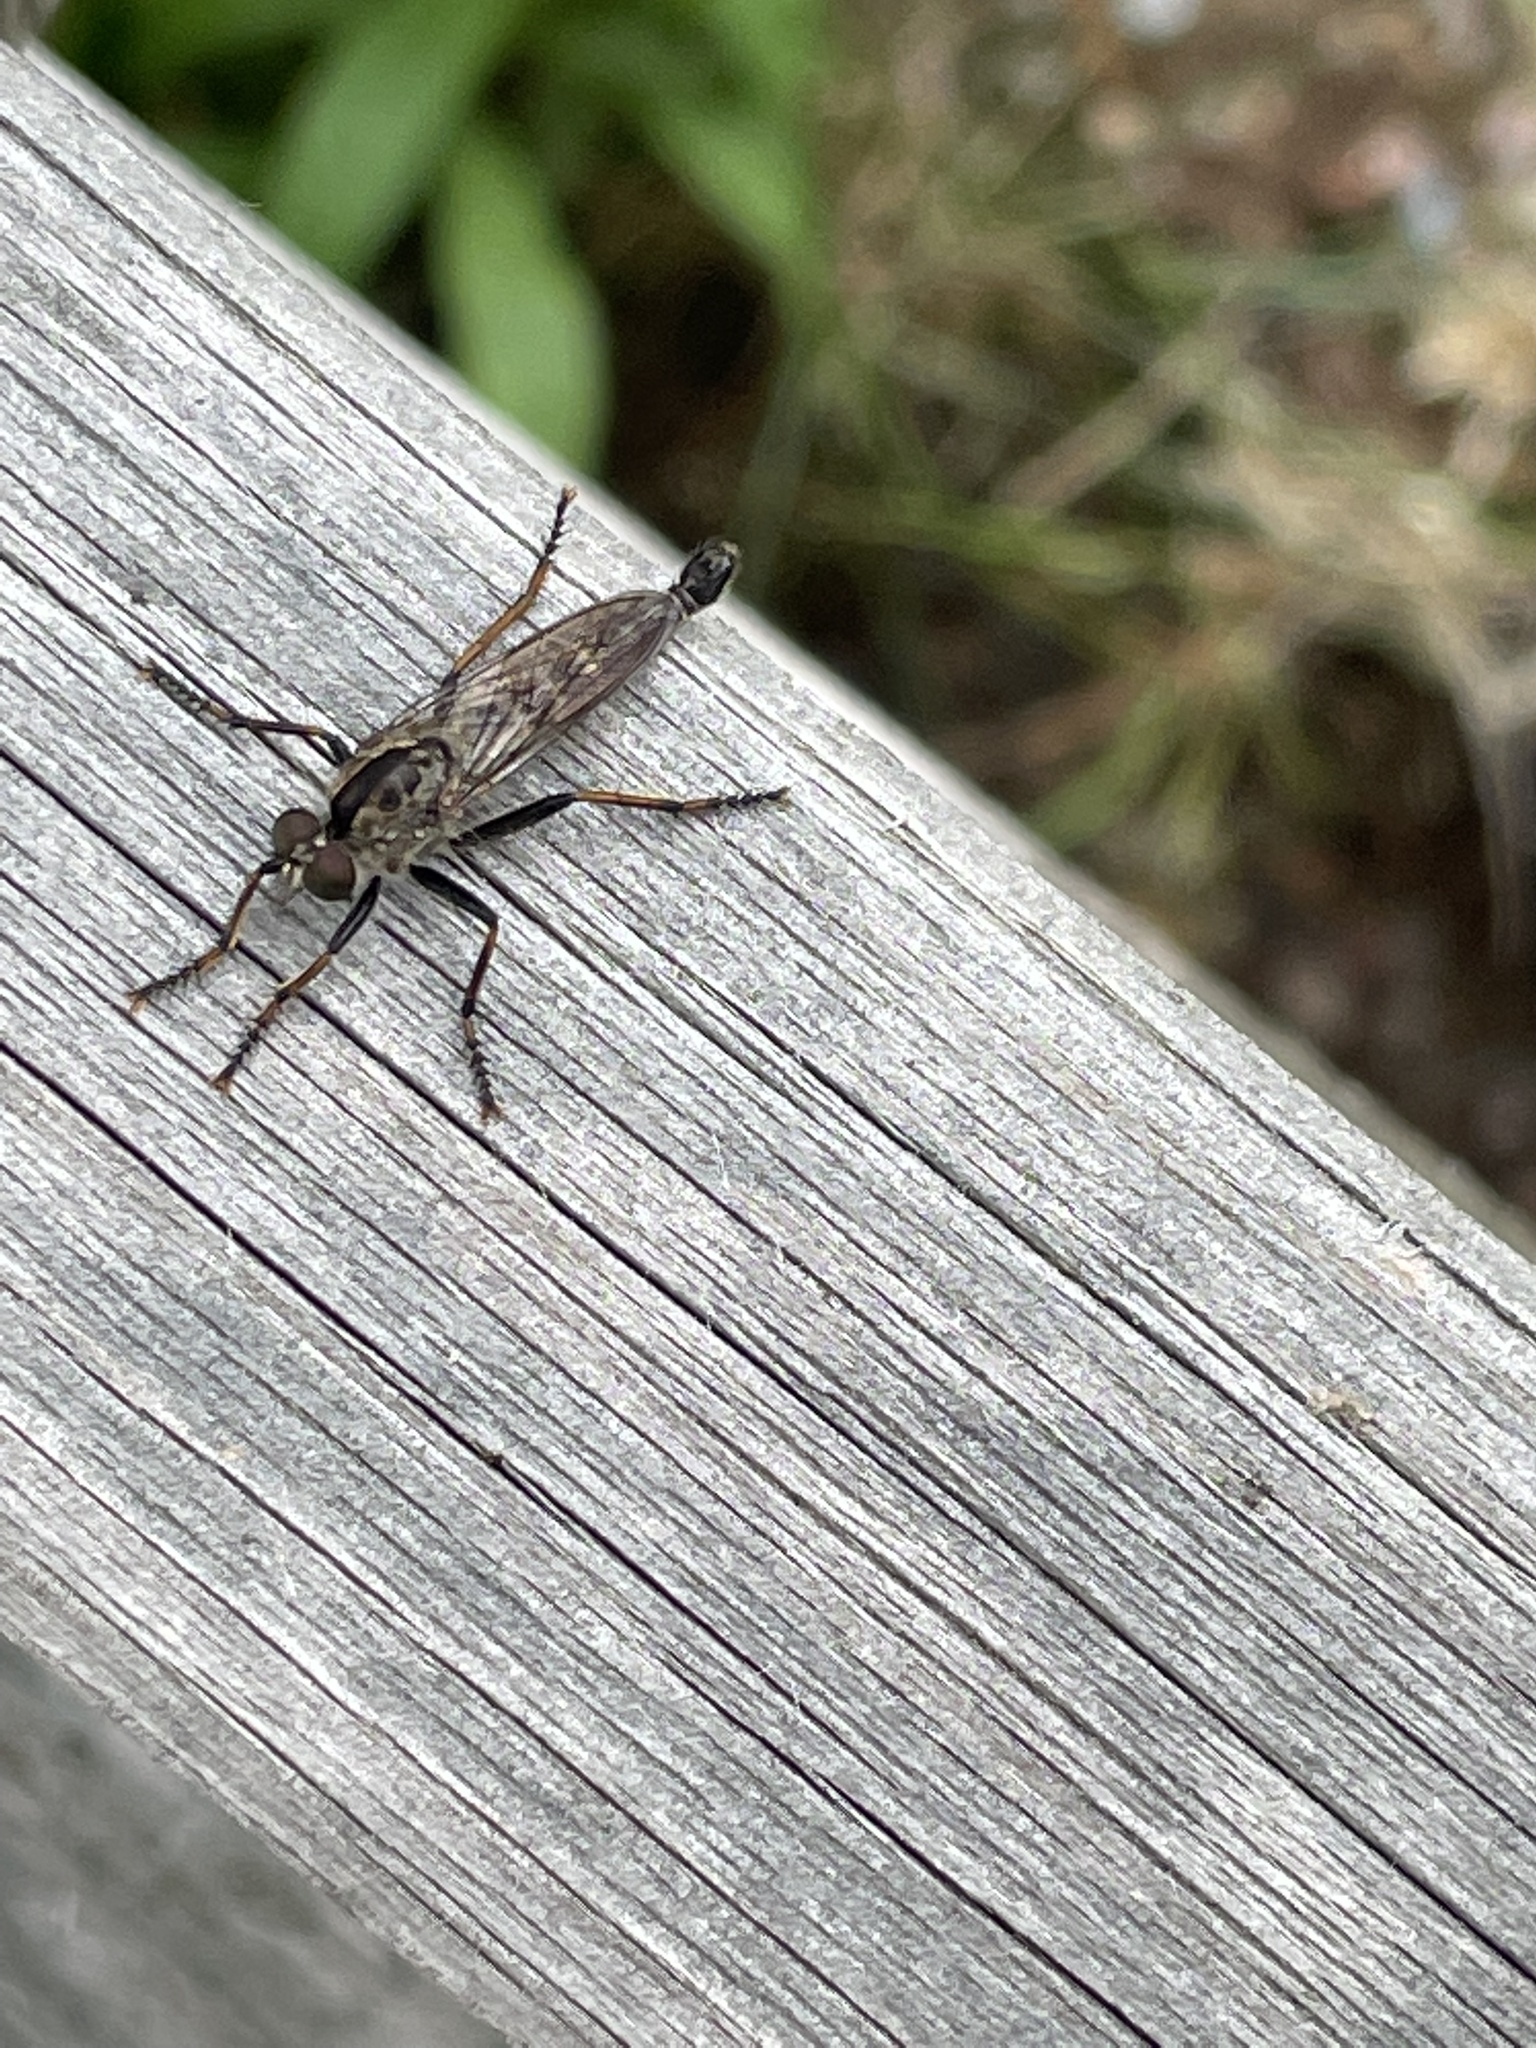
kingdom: Animalia
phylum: Arthropoda
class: Insecta
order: Diptera
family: Asilidae
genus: Machimus
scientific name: Machimus sadyates
